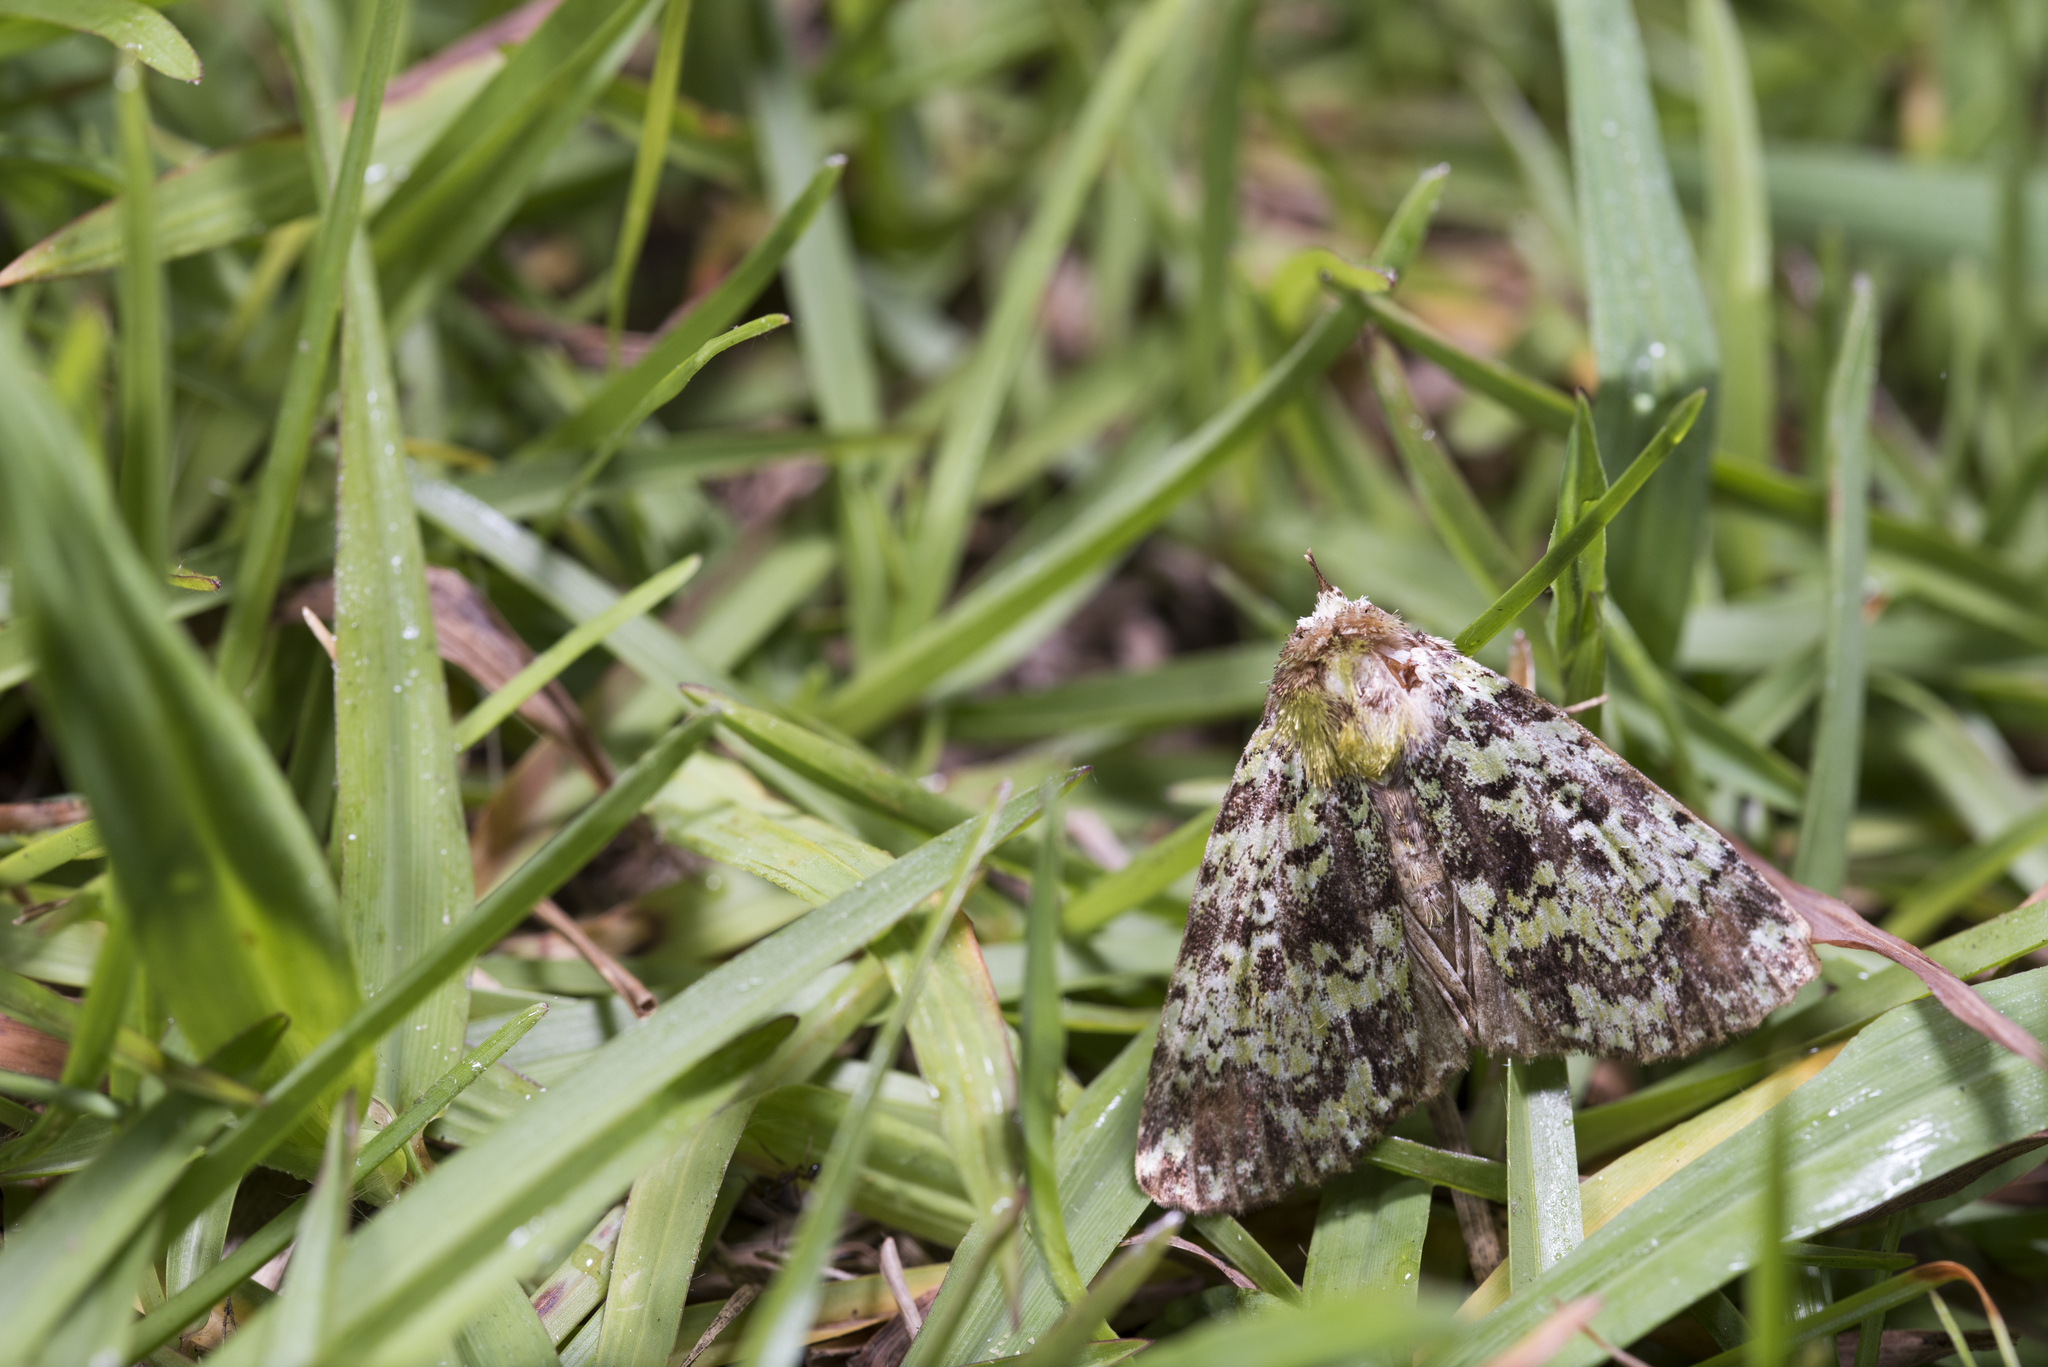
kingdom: Animalia
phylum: Arthropoda
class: Insecta
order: Lepidoptera
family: Noctuidae
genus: Belciana
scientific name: Belciana viridipicta
